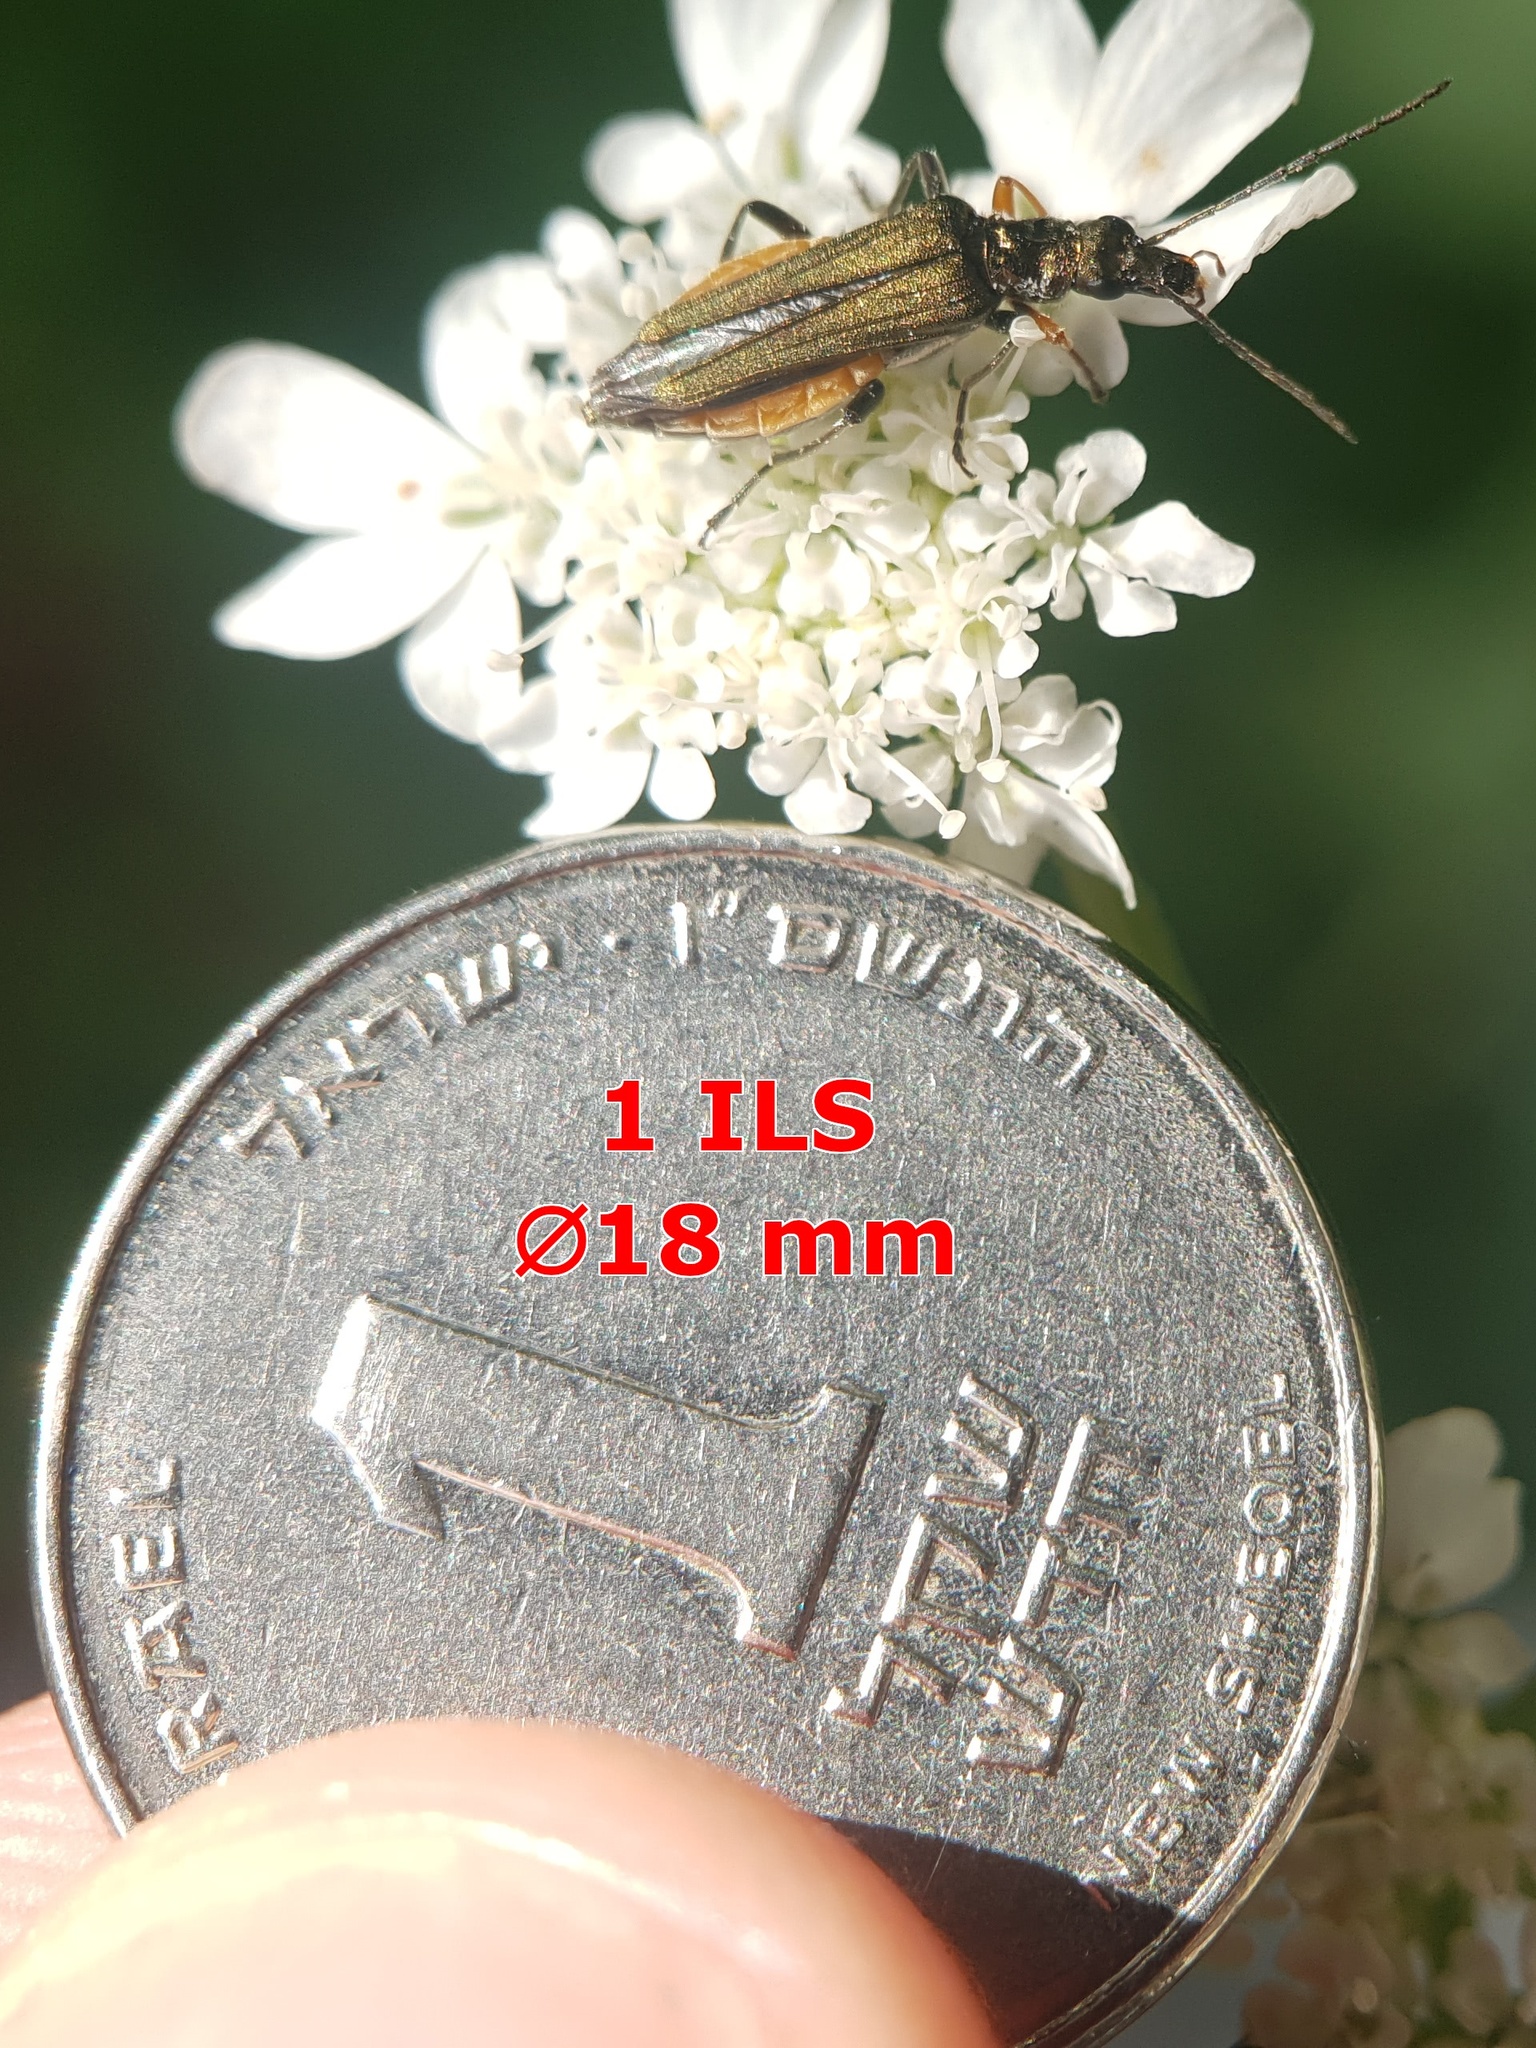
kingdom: Animalia
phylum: Arthropoda
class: Insecta
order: Coleoptera
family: Oedemeridae
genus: Oedemera
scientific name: Oedemera flavipes
